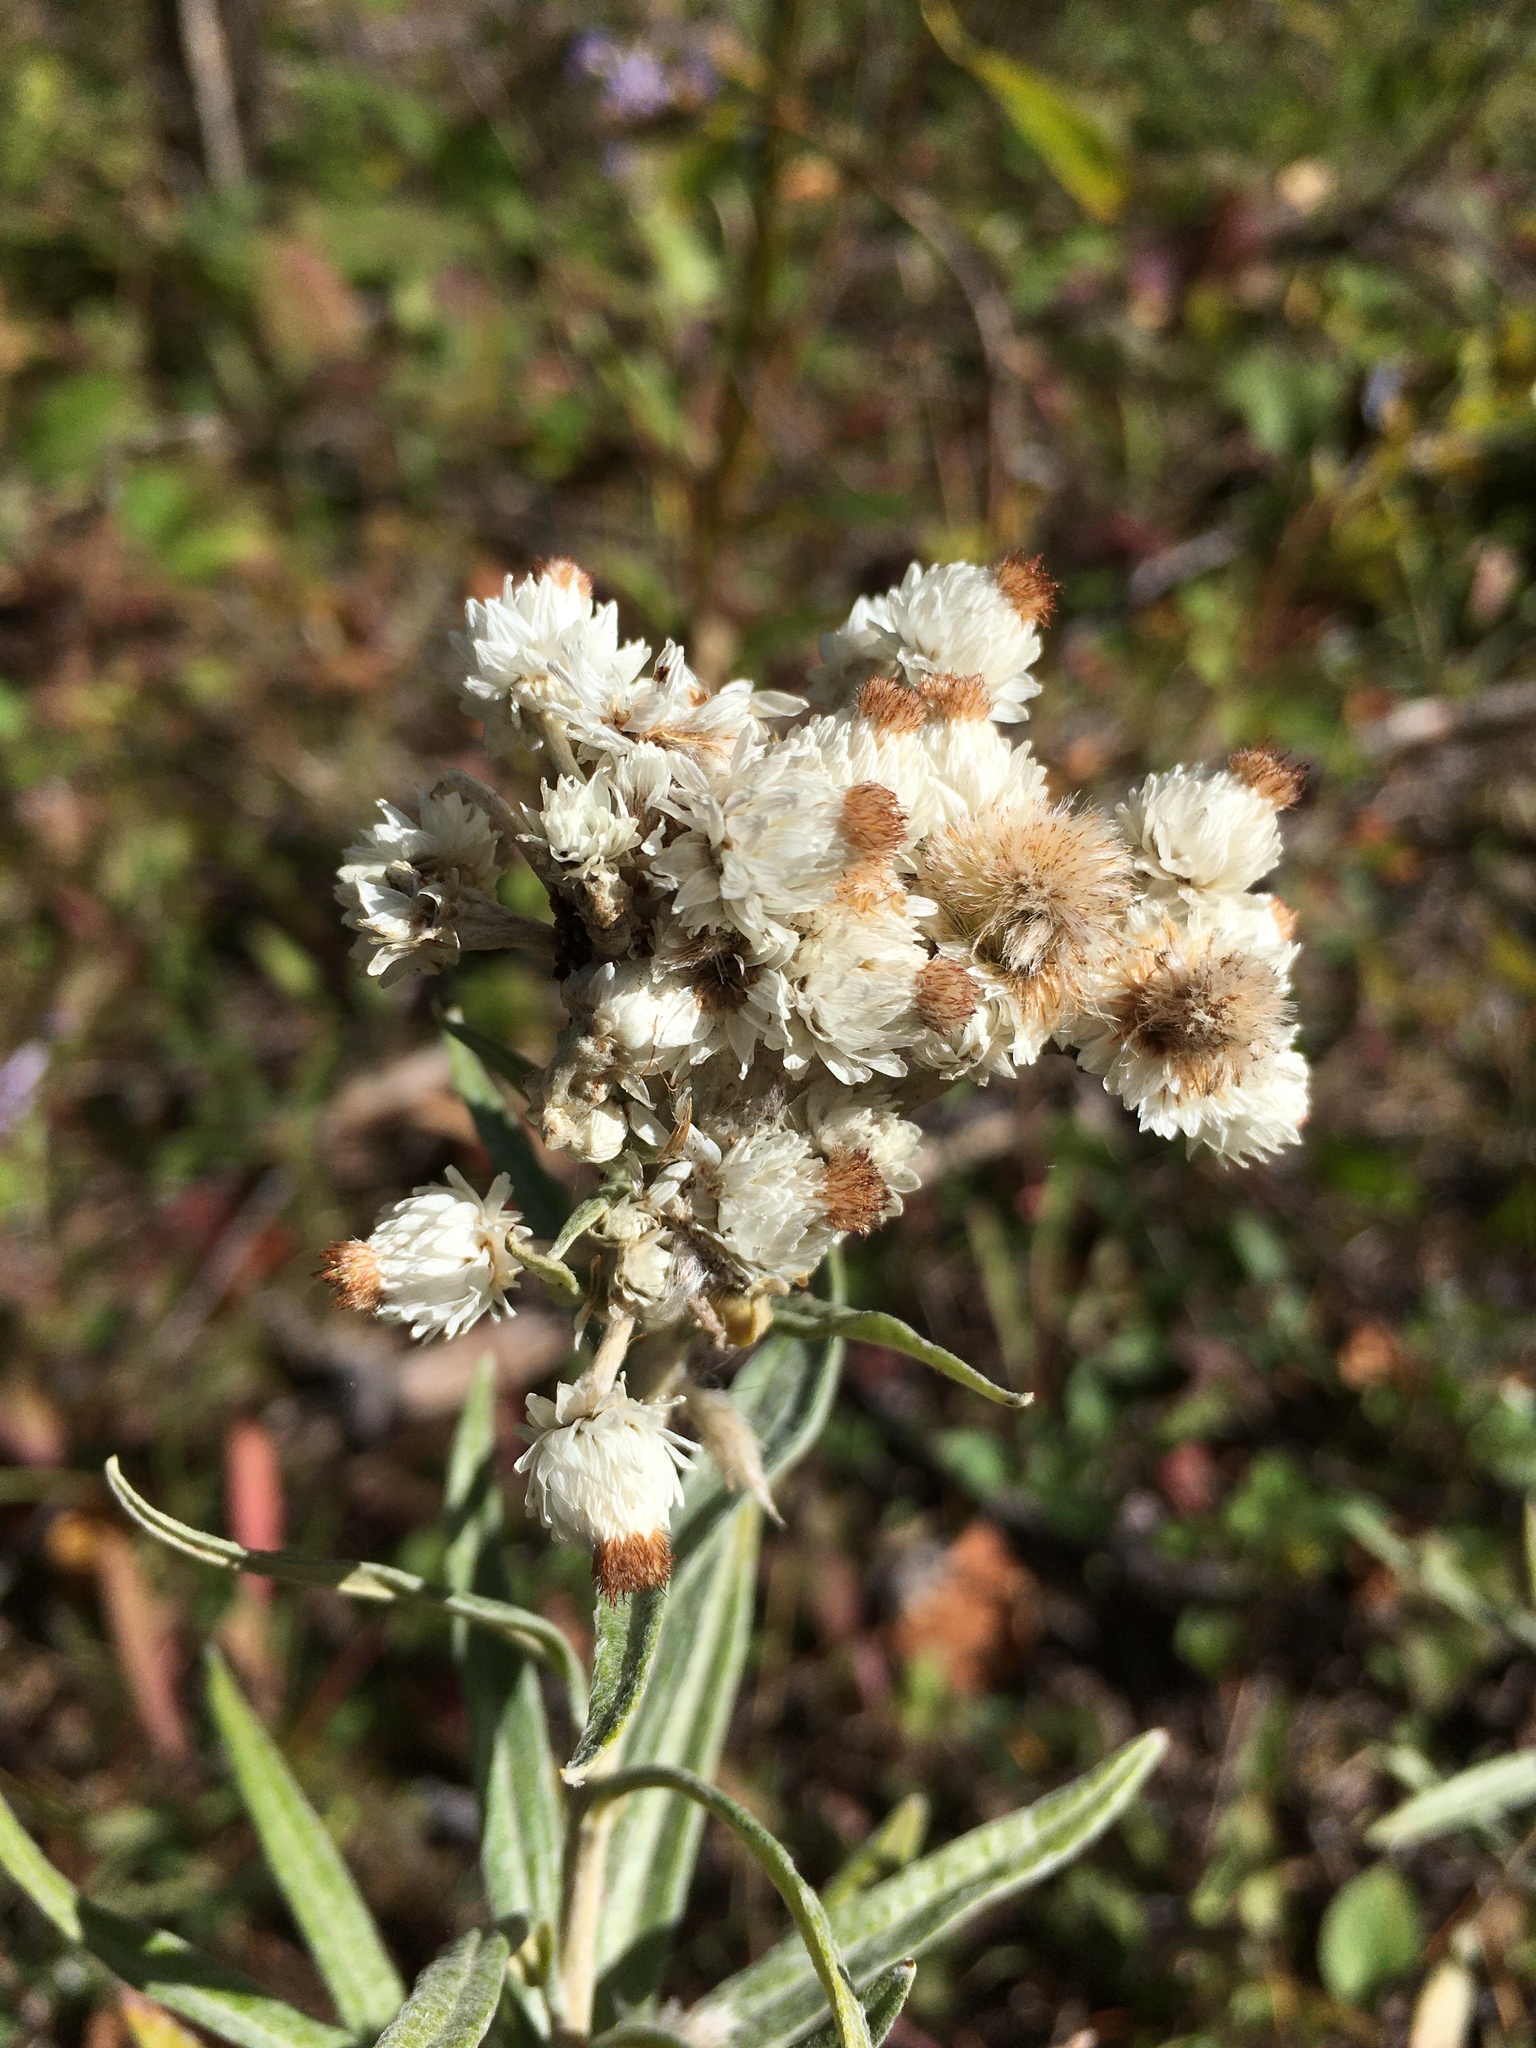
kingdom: Plantae
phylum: Tracheophyta
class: Magnoliopsida
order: Asterales
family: Asteraceae
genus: Anaphalis
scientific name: Anaphalis margaritacea
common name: Pearly everlasting
